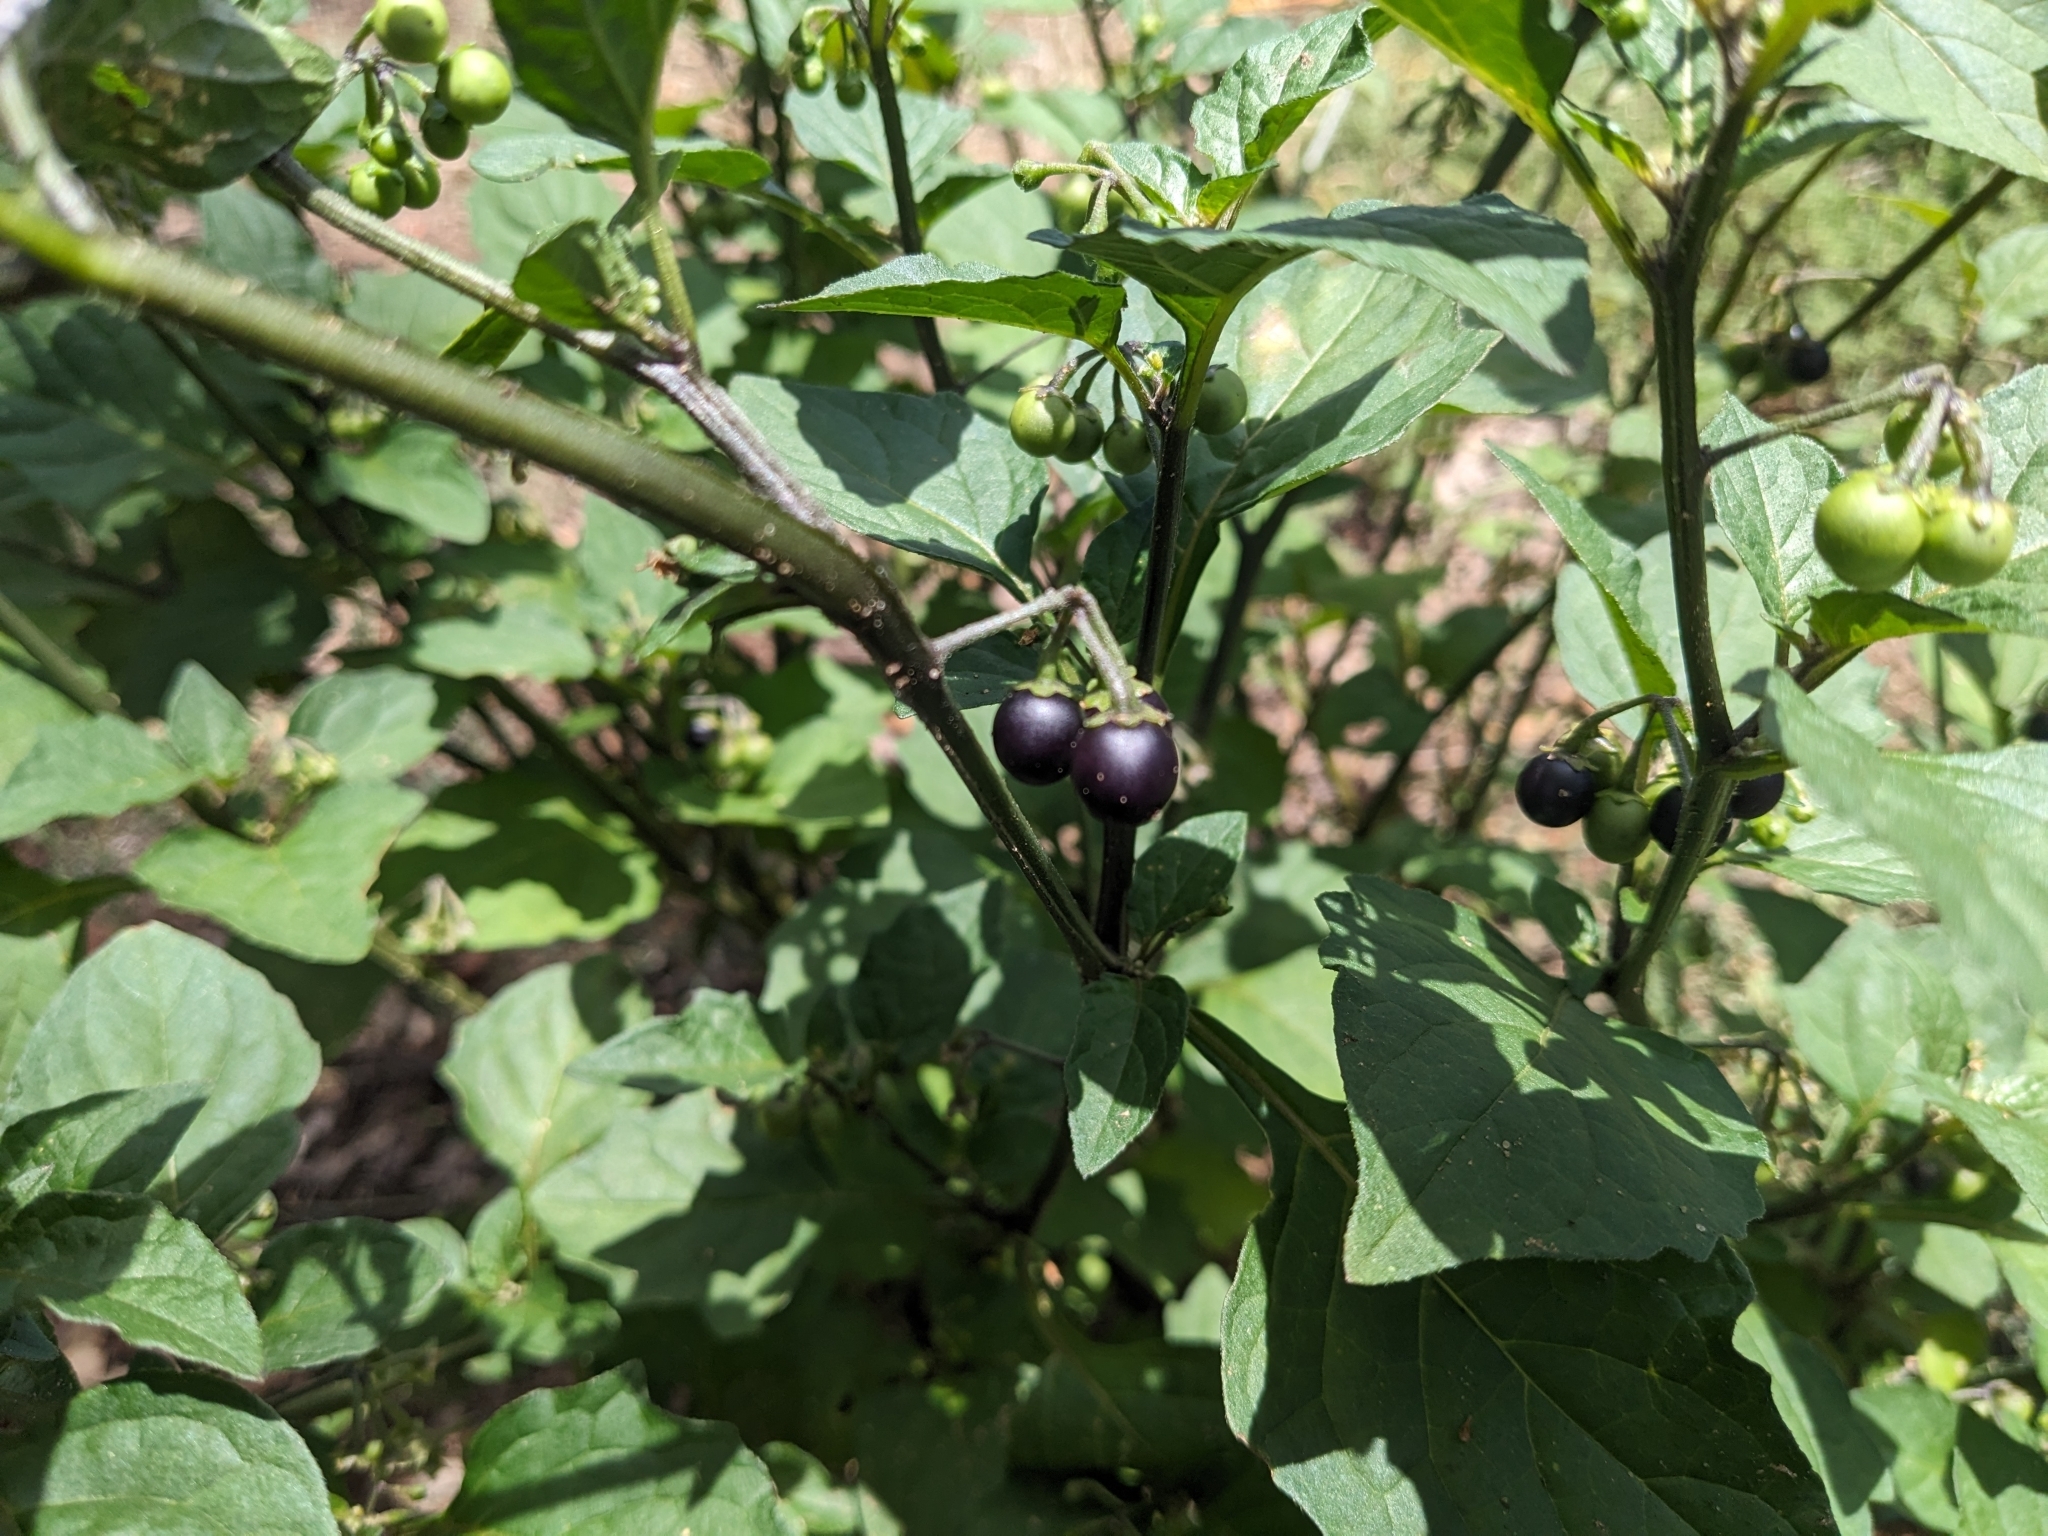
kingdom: Plantae
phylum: Tracheophyta
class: Magnoliopsida
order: Solanales
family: Solanaceae
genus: Solanum
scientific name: Solanum nigrum
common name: Black nightshade
